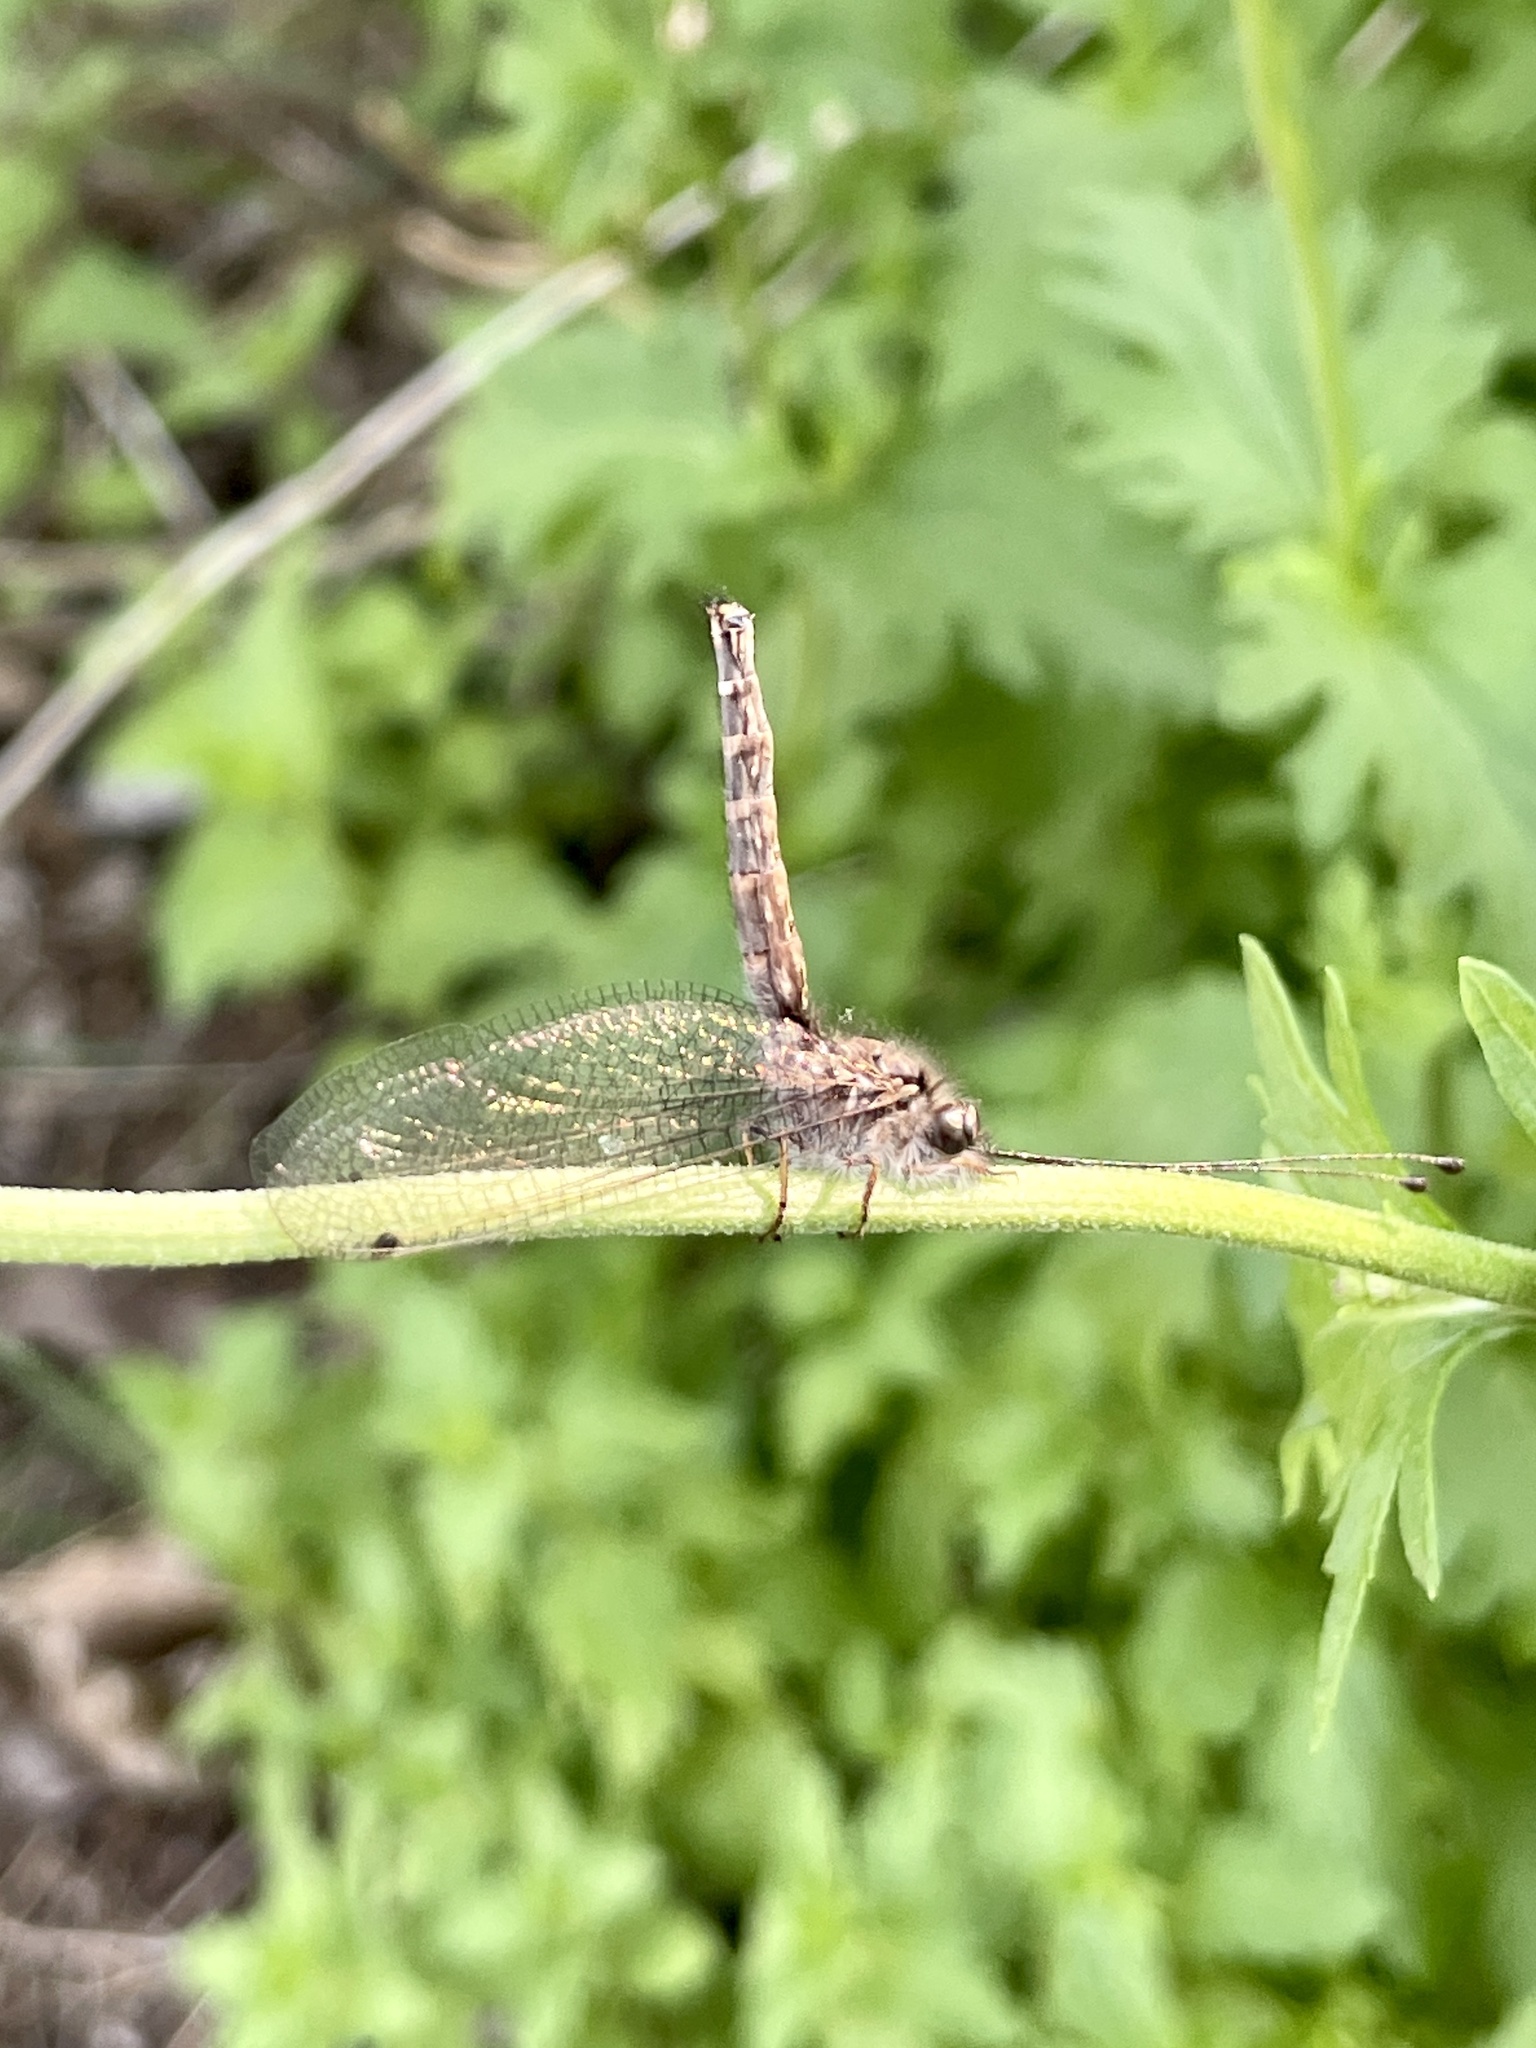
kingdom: Animalia
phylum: Arthropoda
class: Insecta
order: Neuroptera
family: Ascalaphidae
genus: Ululodes
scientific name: Ululodes macleayanus
